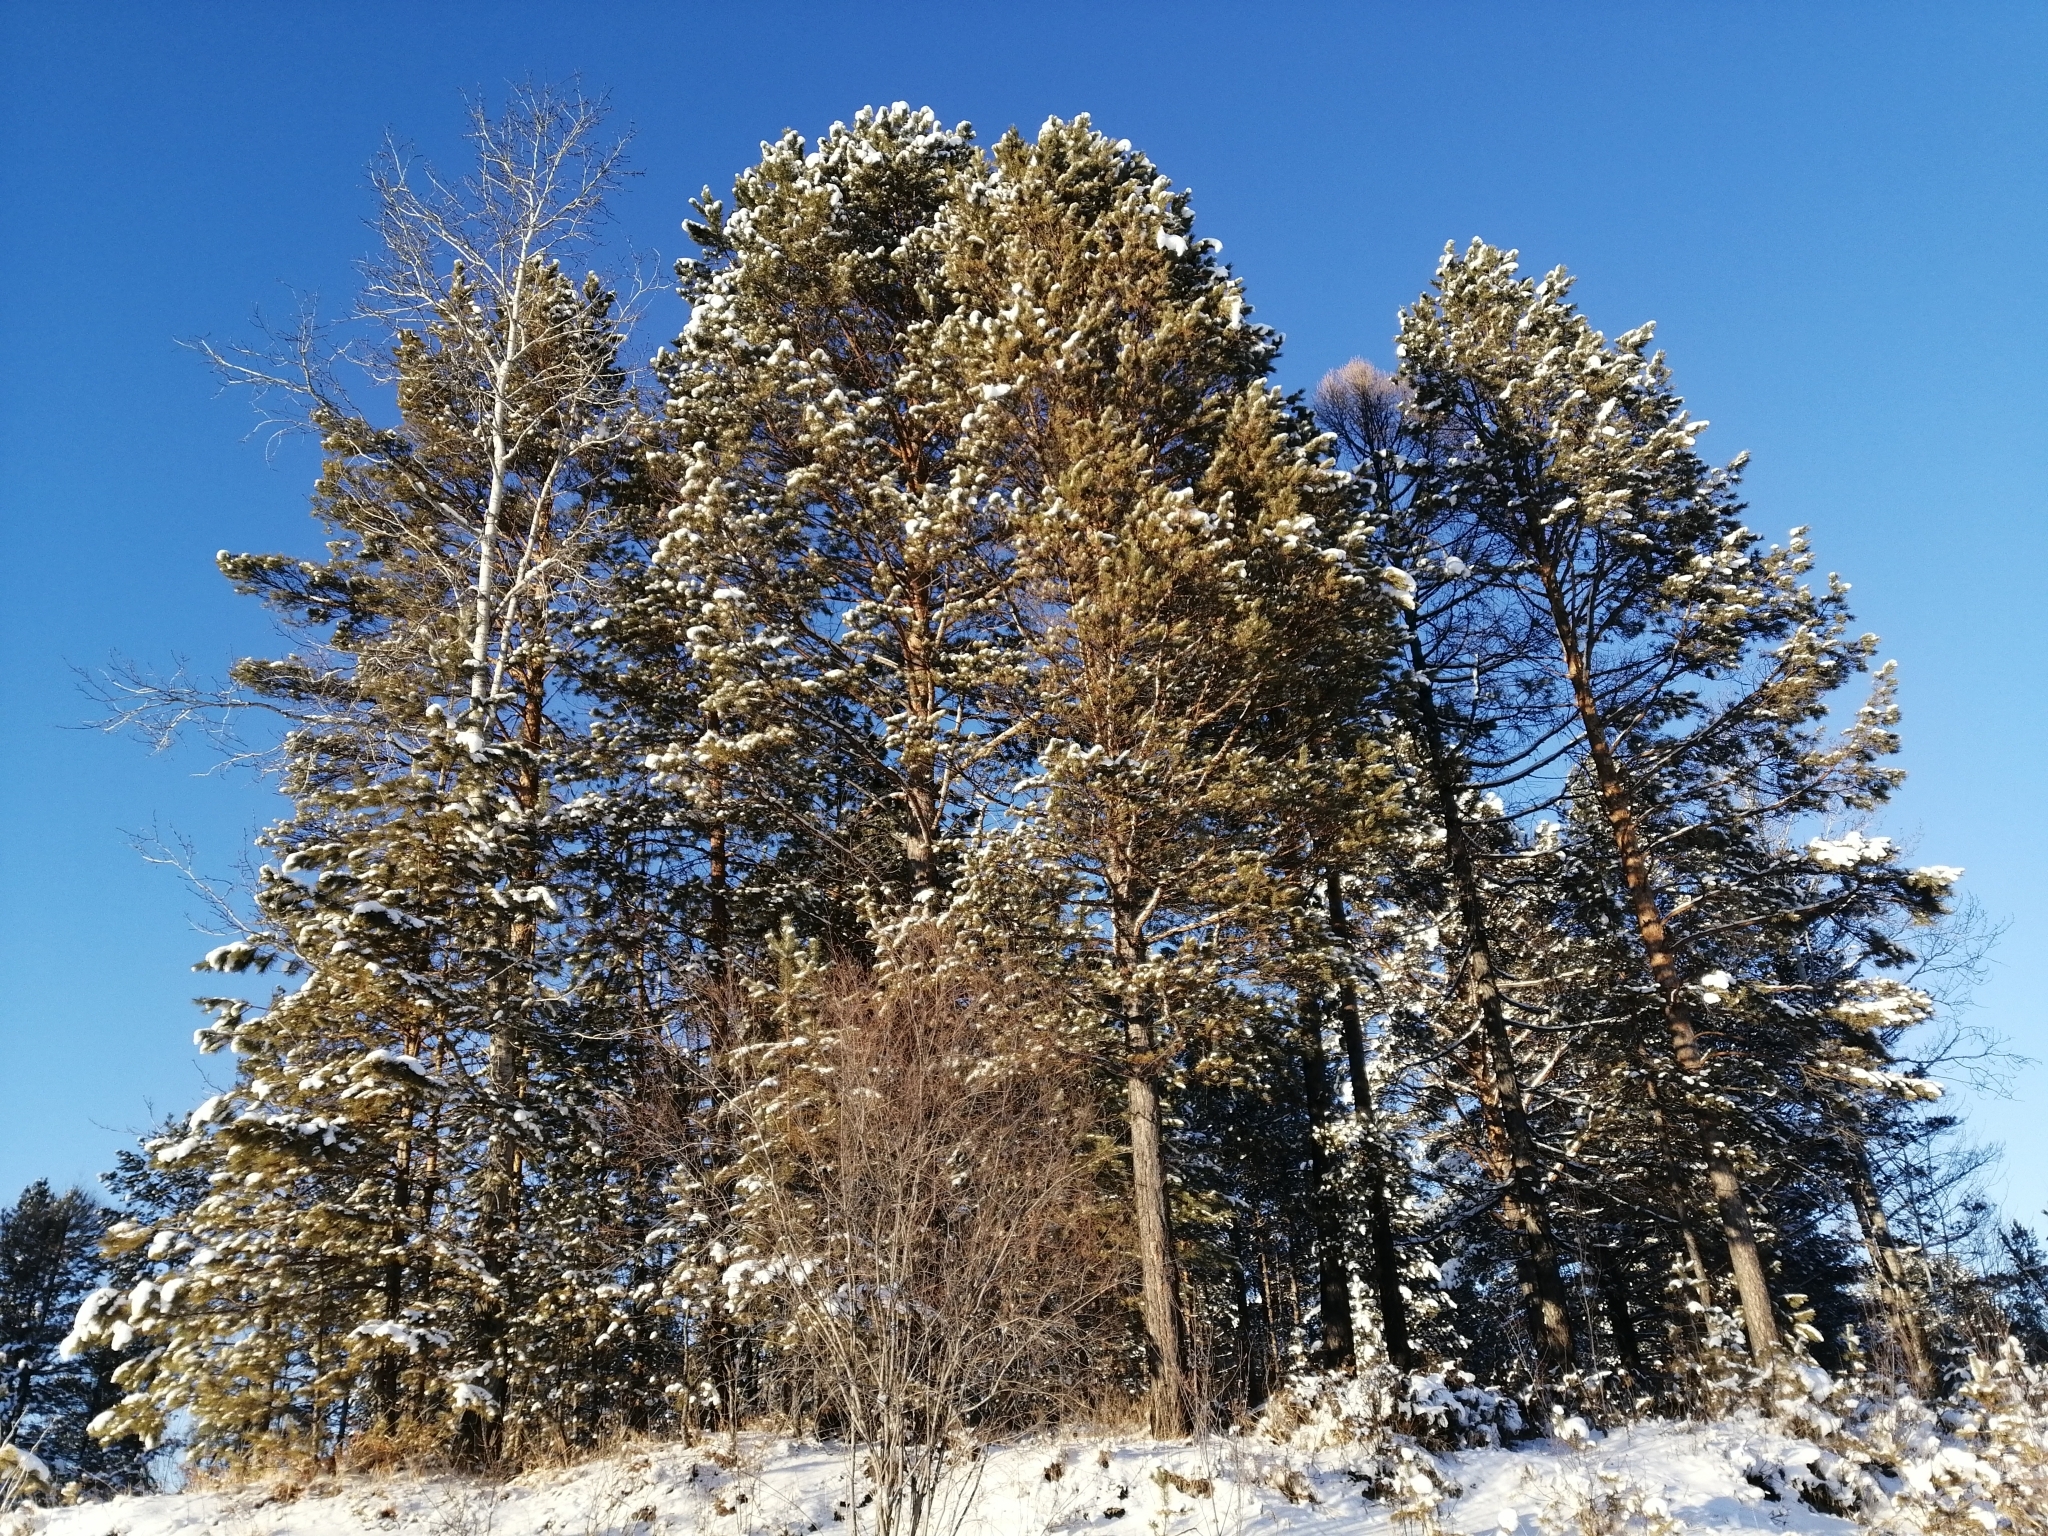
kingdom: Plantae
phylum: Tracheophyta
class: Pinopsida
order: Pinales
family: Pinaceae
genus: Pinus
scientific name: Pinus sylvestris
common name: Scots pine
